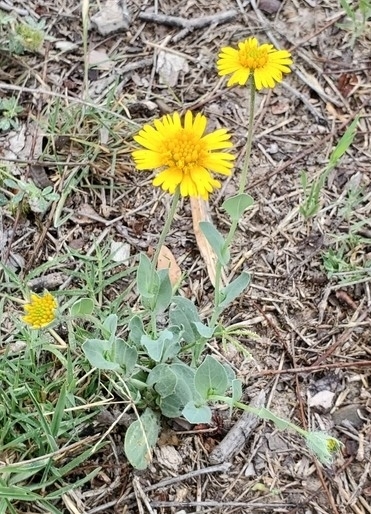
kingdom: Plantae
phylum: Tracheophyta
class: Magnoliopsida
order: Asterales
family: Asteraceae
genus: Amblyolepis
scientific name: Amblyolepis setigera
